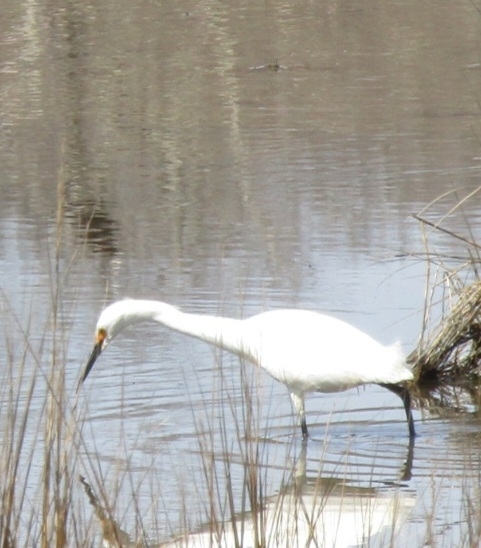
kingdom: Animalia
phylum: Chordata
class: Aves
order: Pelecaniformes
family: Ardeidae
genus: Egretta
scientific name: Egretta thula
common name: Snowy egret
